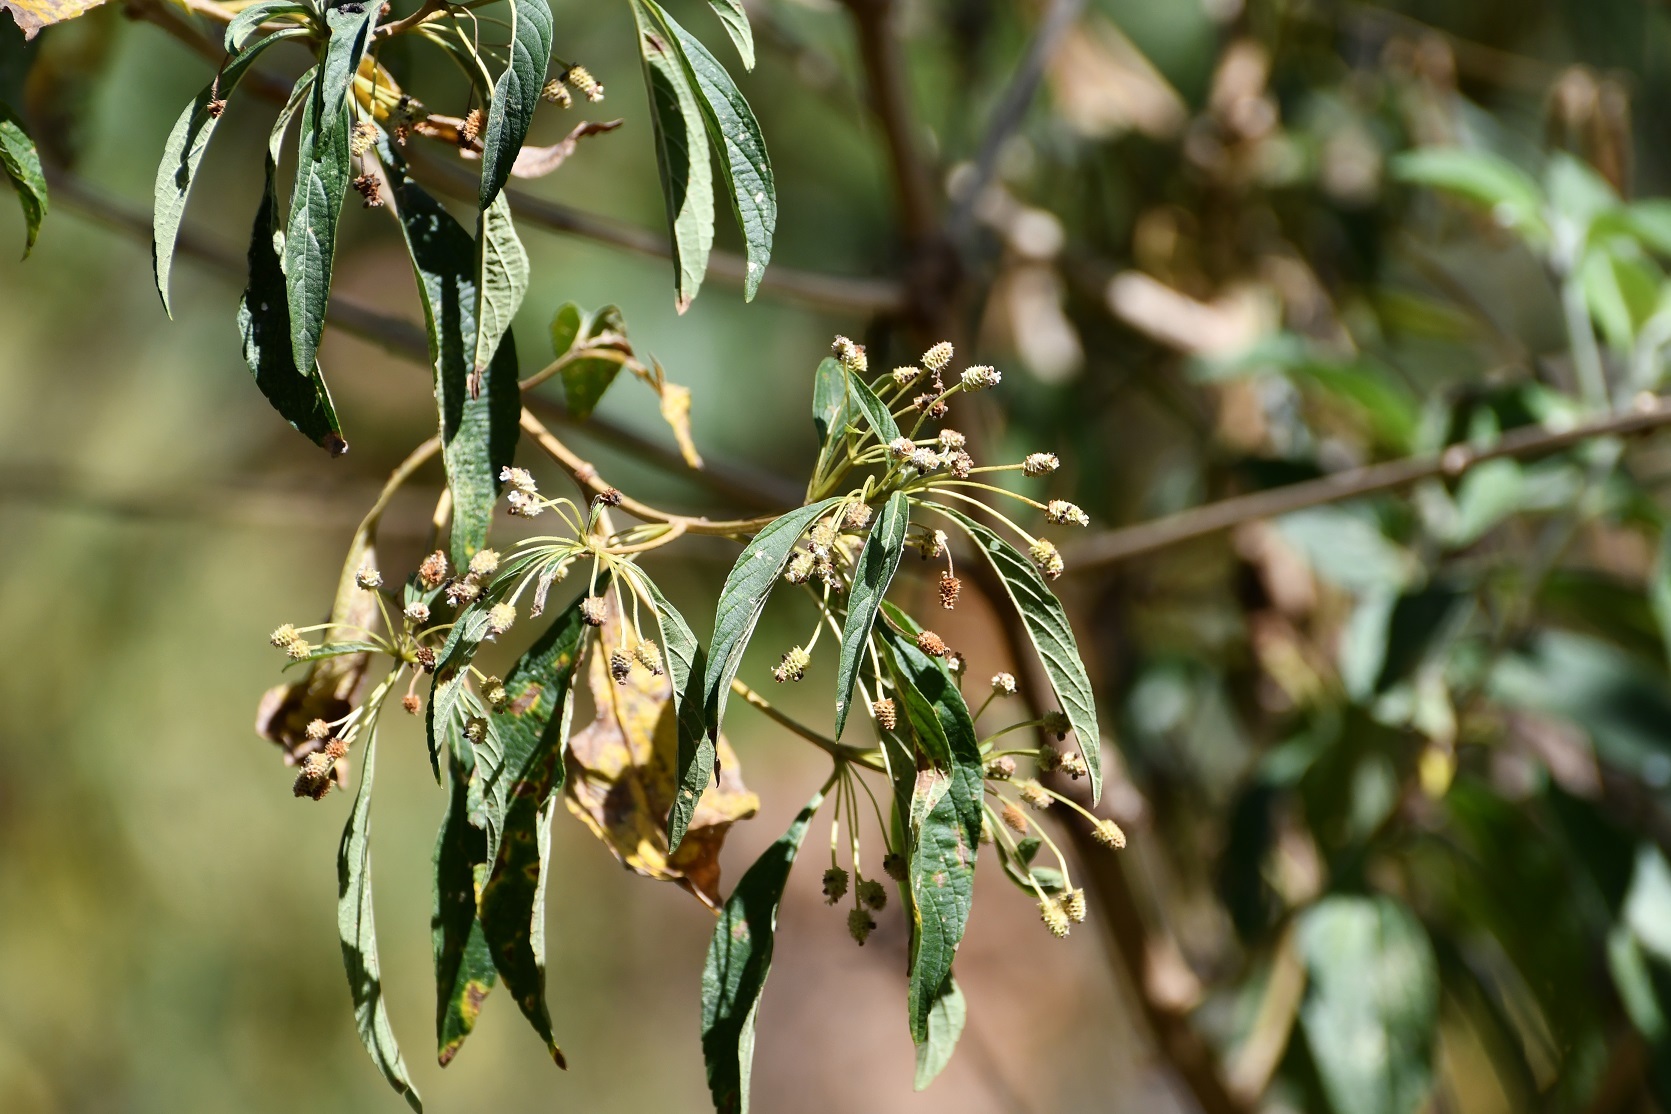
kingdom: Plantae
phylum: Tracheophyta
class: Magnoliopsida
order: Lamiales
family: Verbenaceae
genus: Lippia
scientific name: Lippia umbellata
